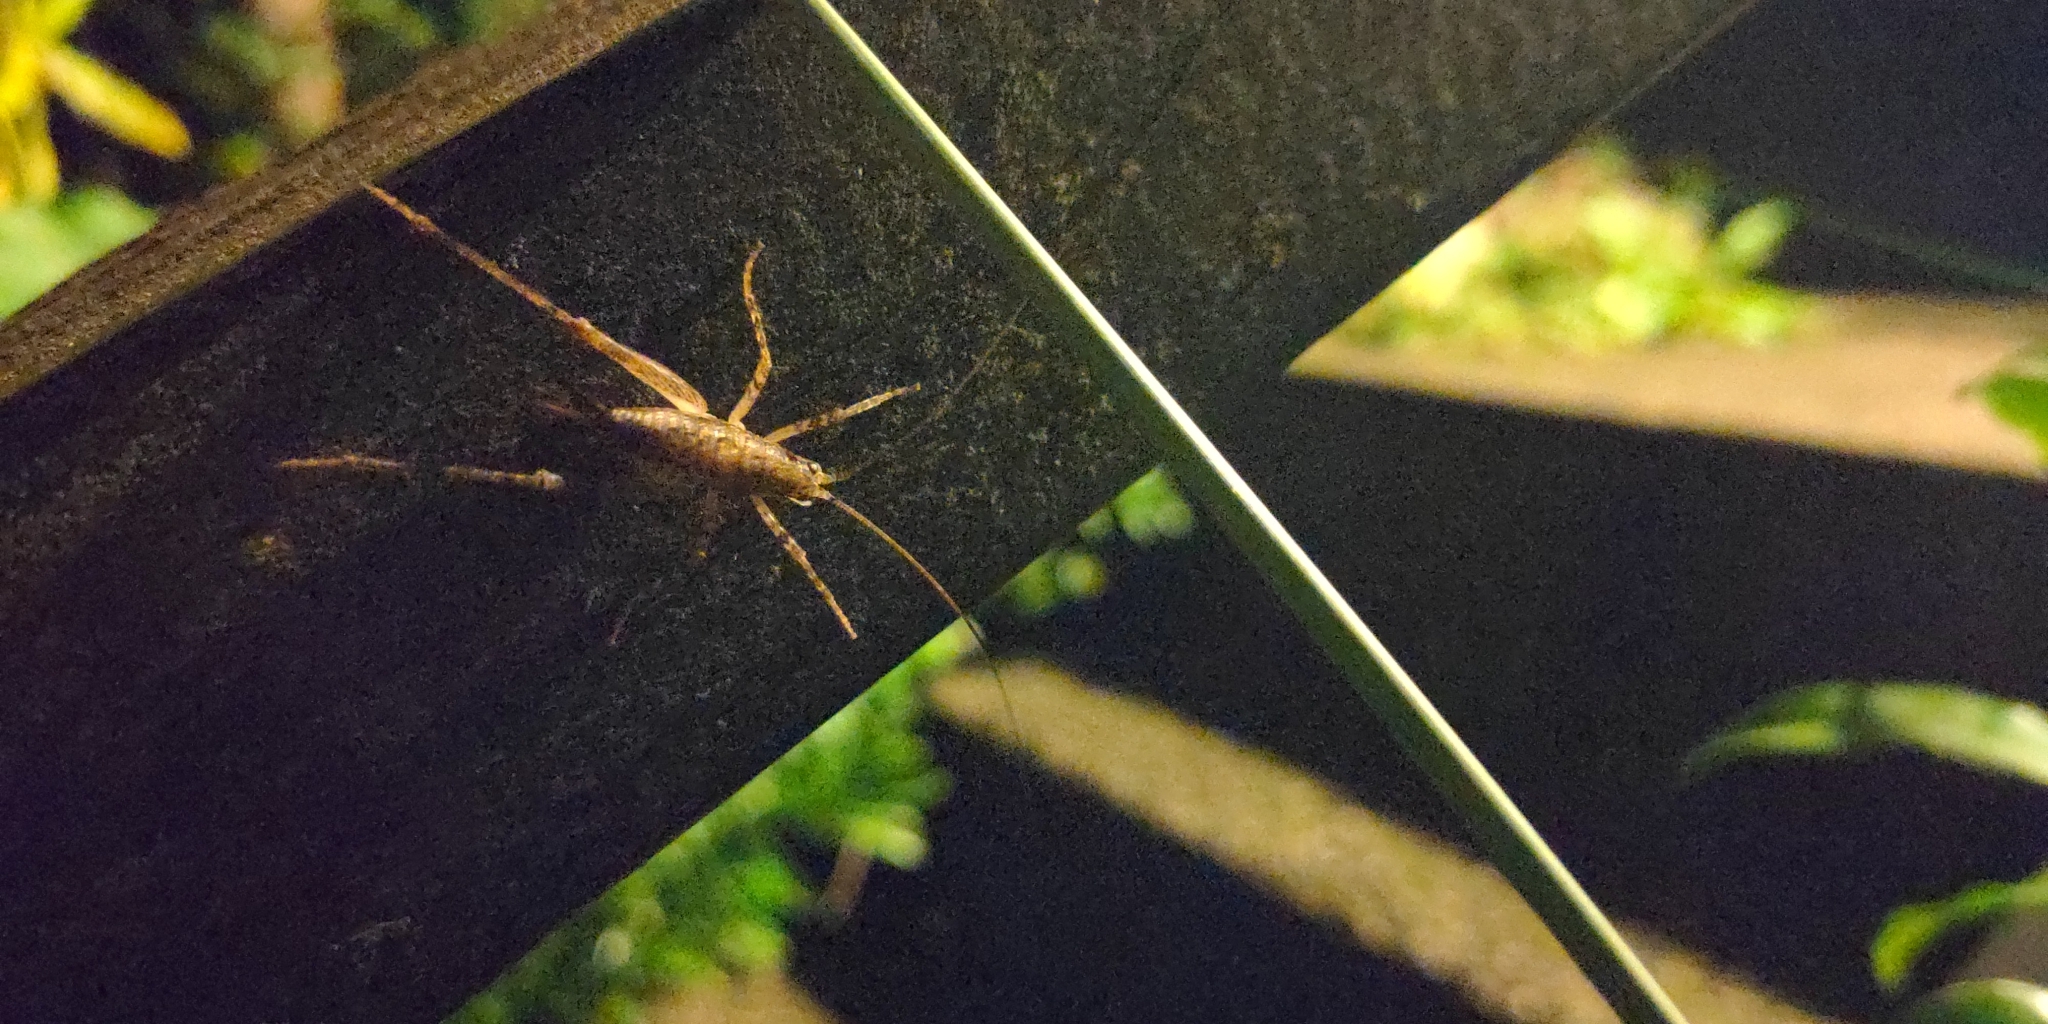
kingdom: Animalia
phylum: Arthropoda
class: Insecta
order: Orthoptera
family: Rhaphidophoridae
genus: Isoplectron
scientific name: Isoplectron armatum
